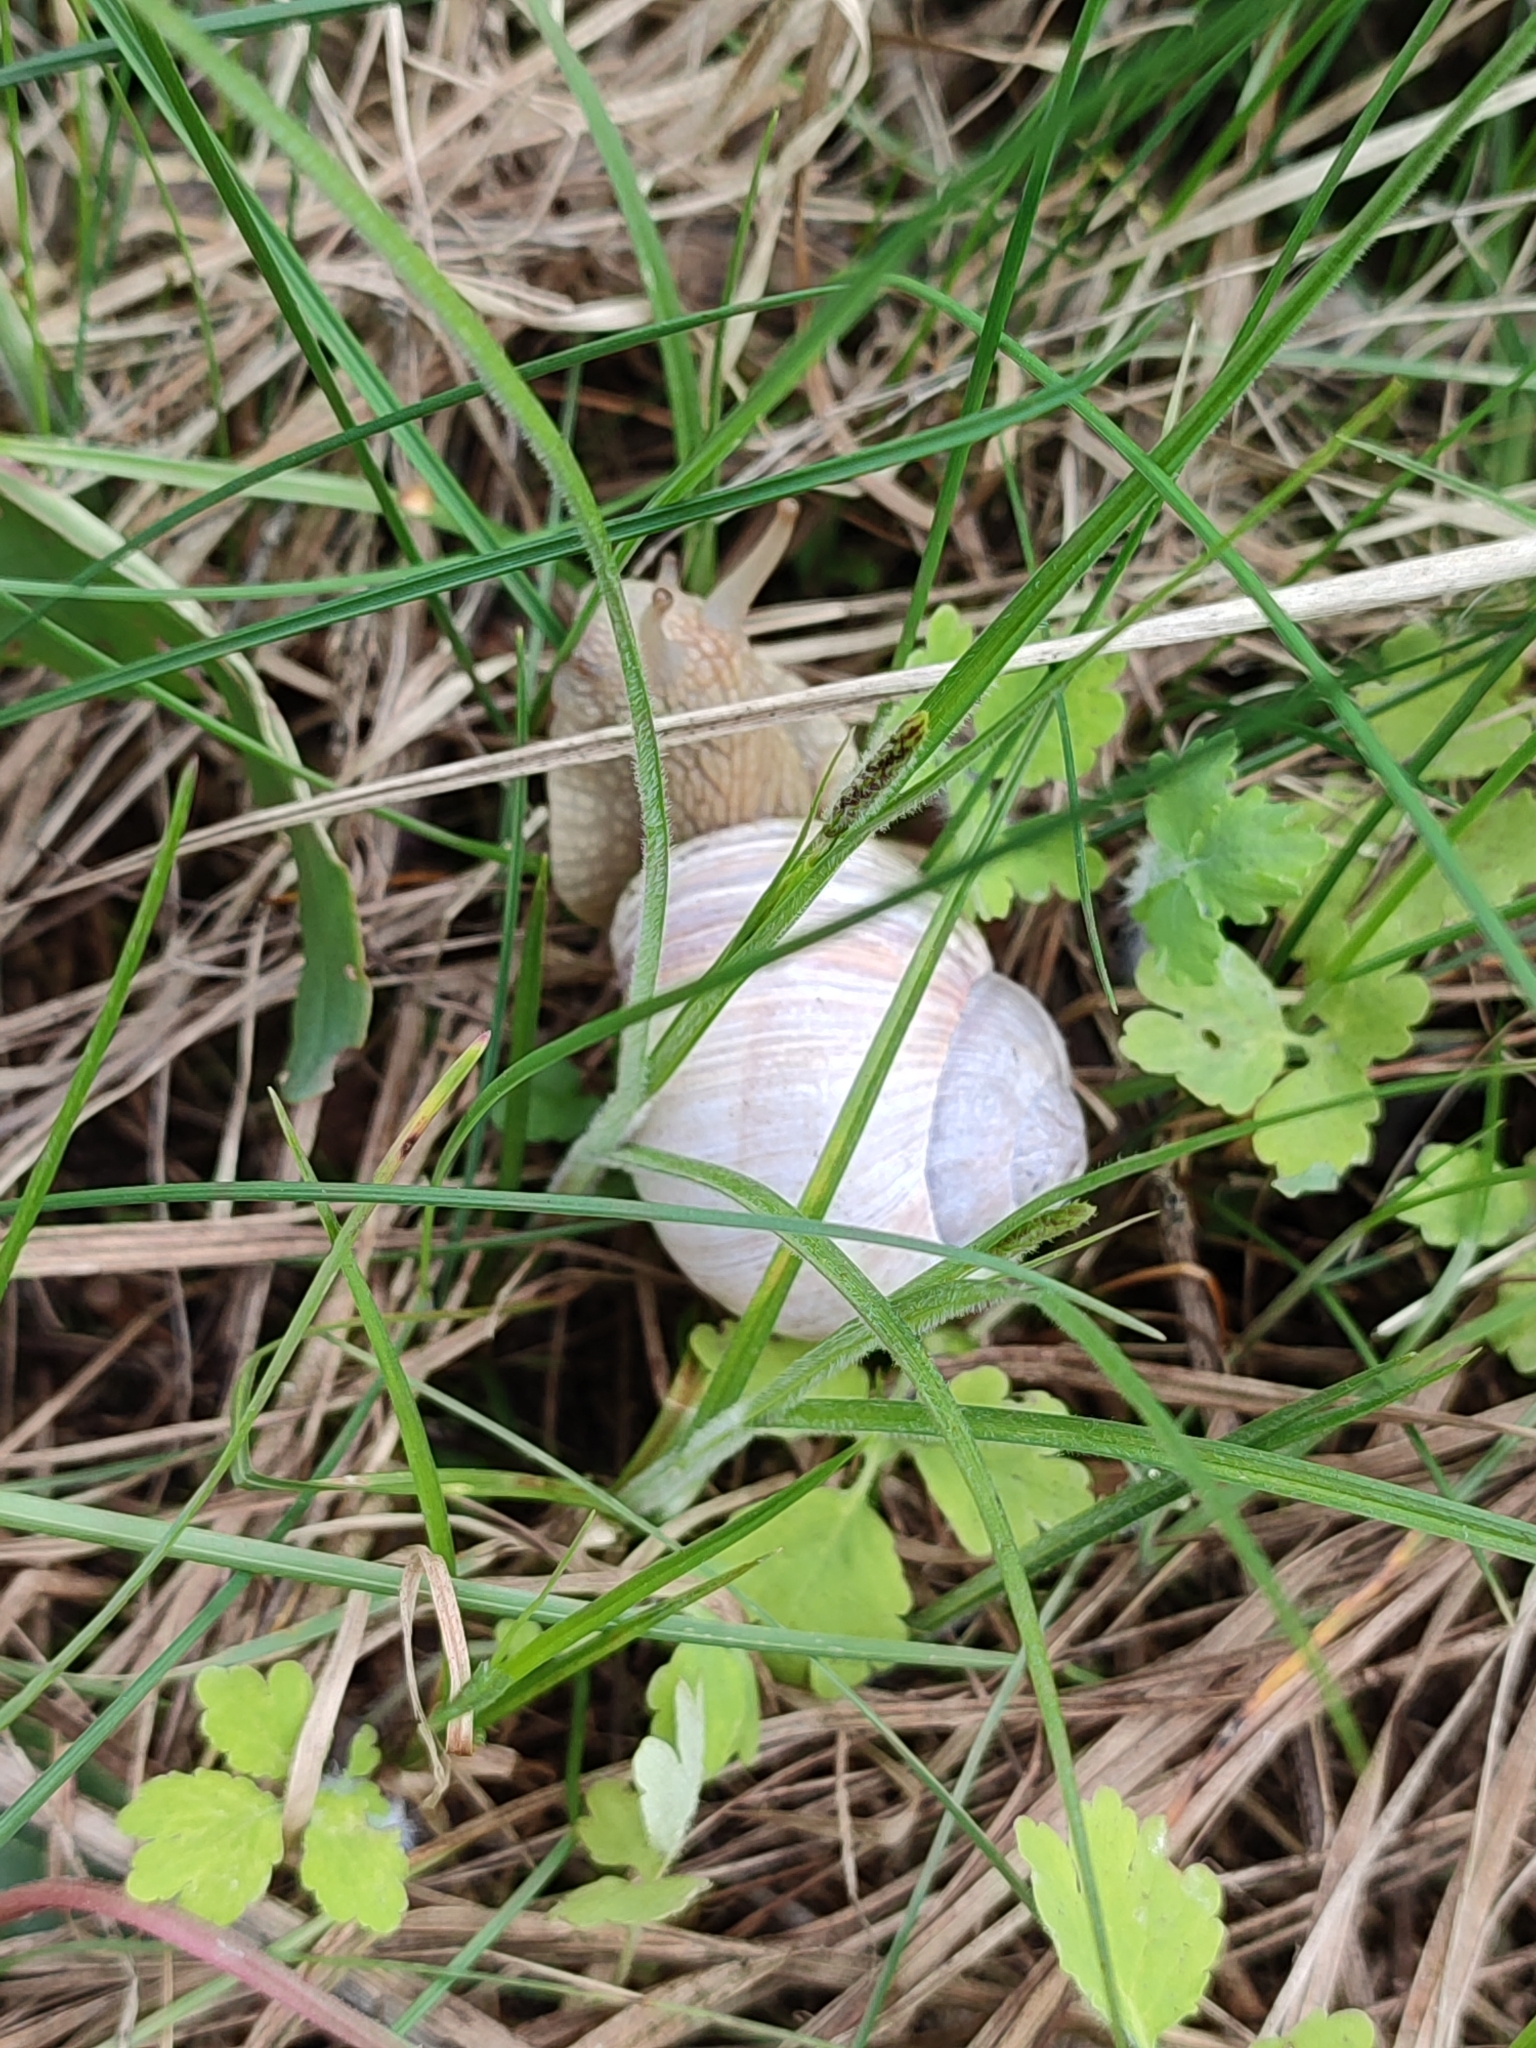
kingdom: Animalia
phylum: Mollusca
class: Gastropoda
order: Stylommatophora
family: Helicidae
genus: Helix
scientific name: Helix pomatia
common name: Roman snail
